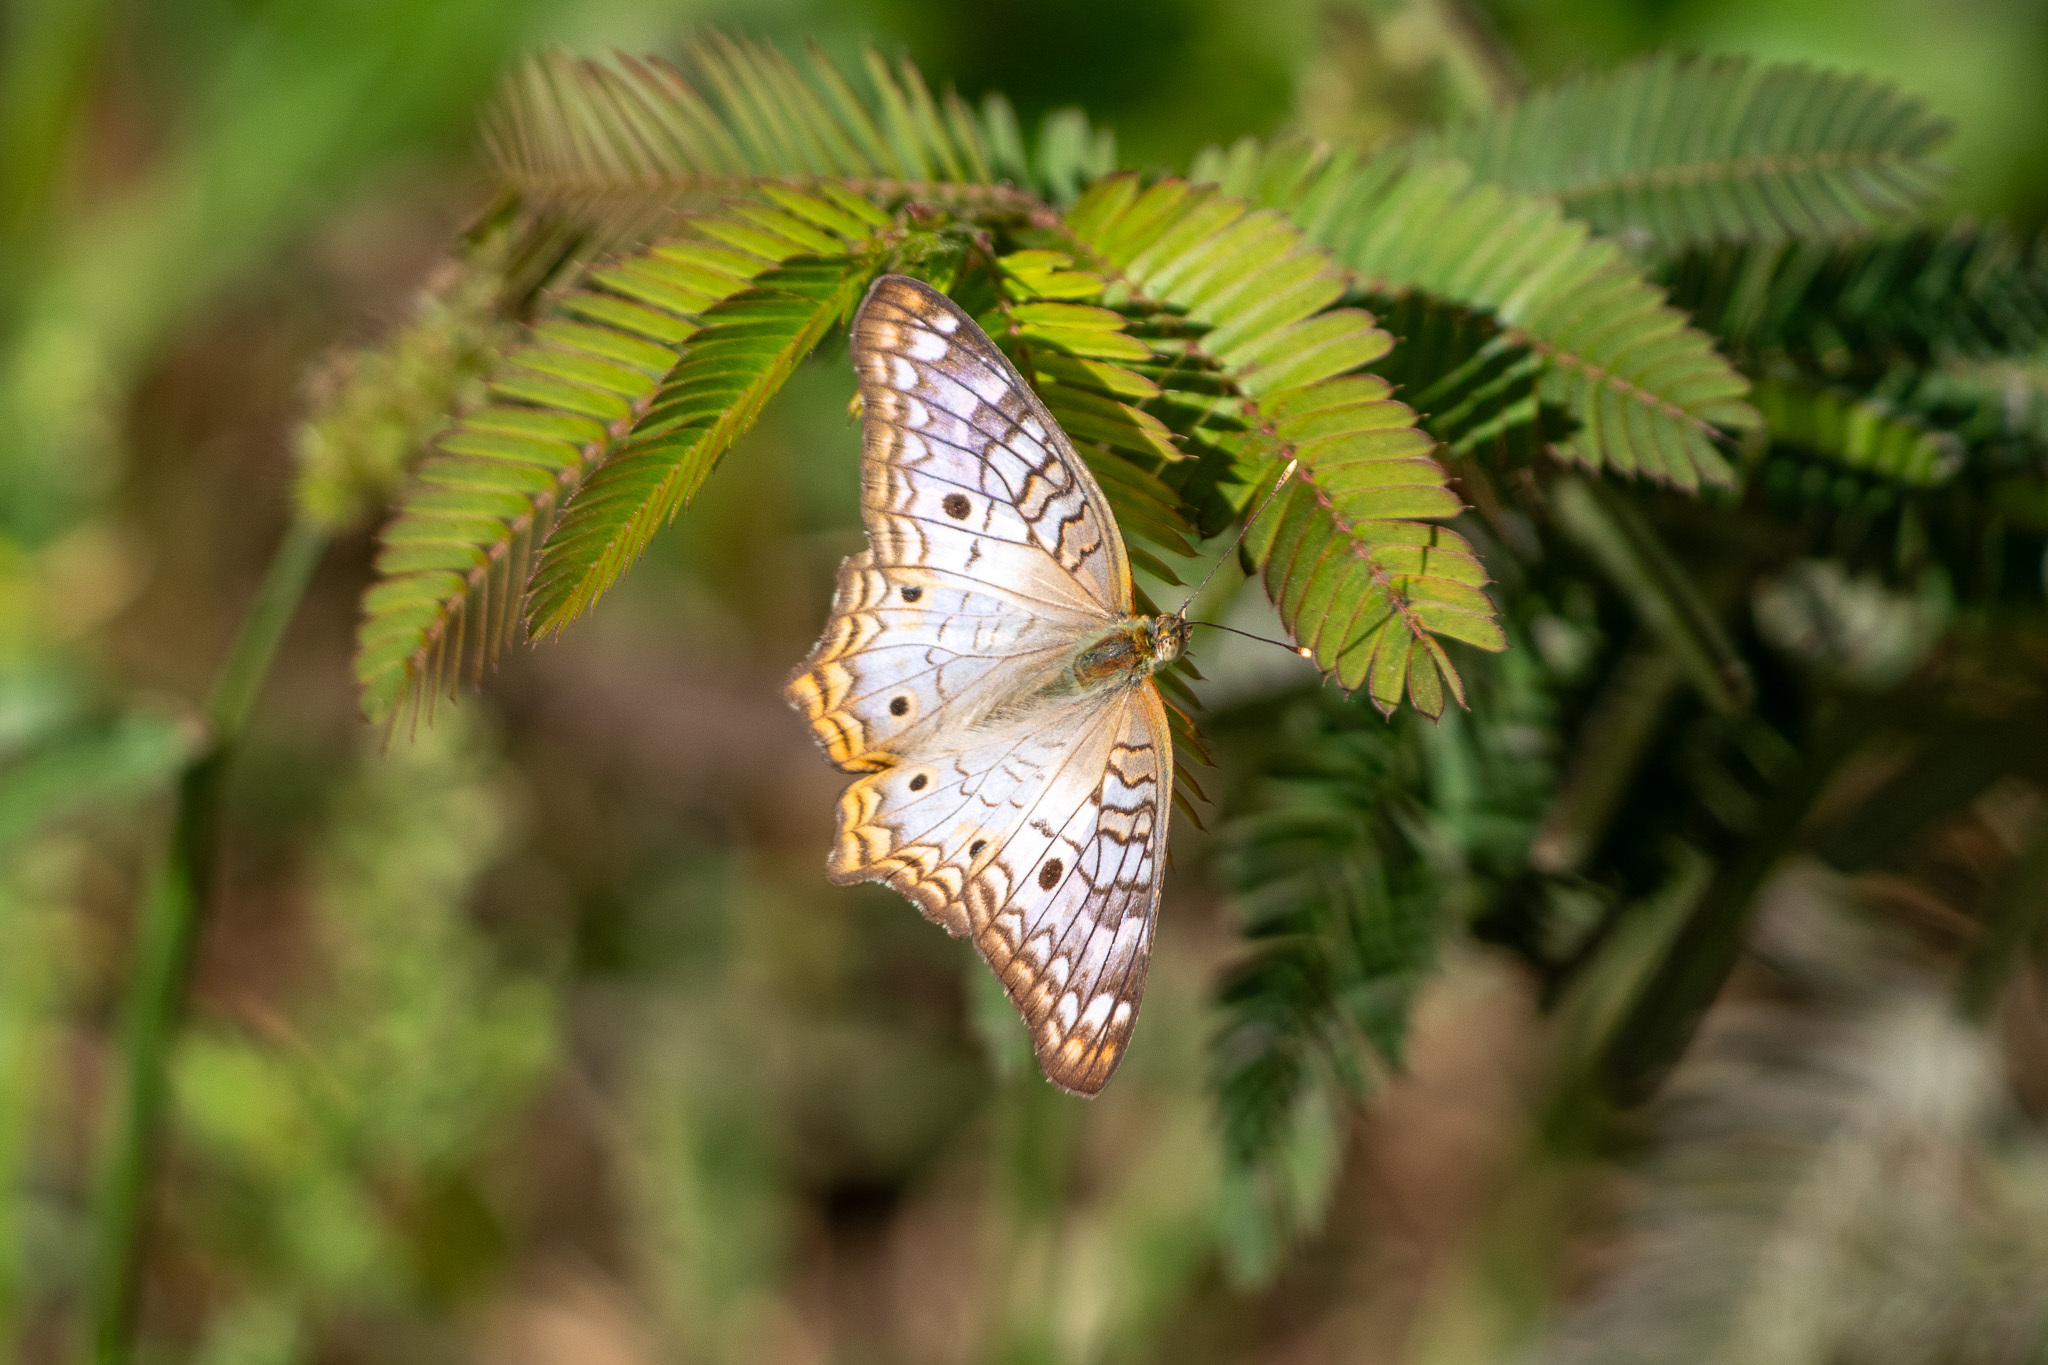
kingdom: Animalia
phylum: Arthropoda
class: Insecta
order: Lepidoptera
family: Nymphalidae
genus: Anartia
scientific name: Anartia jatrophae
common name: White peacock
